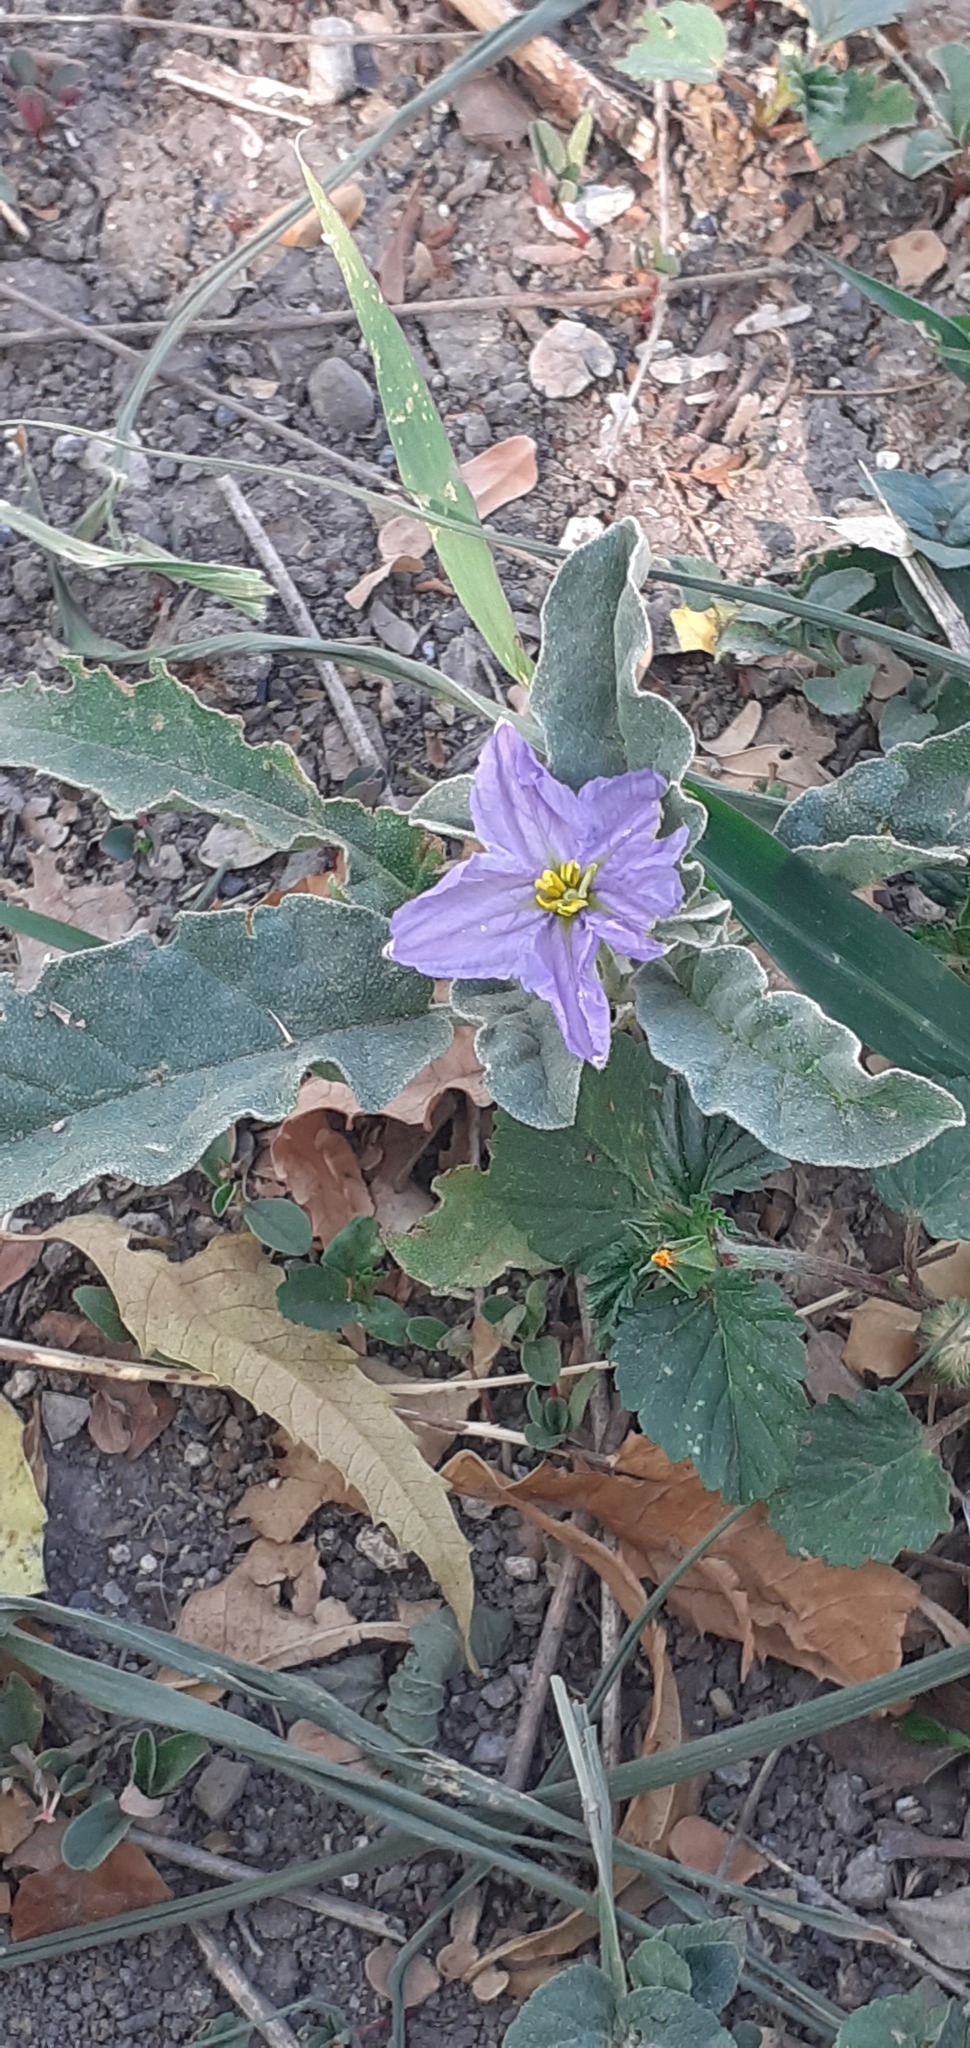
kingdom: Plantae
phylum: Tracheophyta
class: Magnoliopsida
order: Solanales
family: Solanaceae
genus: Solanum
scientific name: Solanum elaeagnifolium
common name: Silverleaf nightshade
